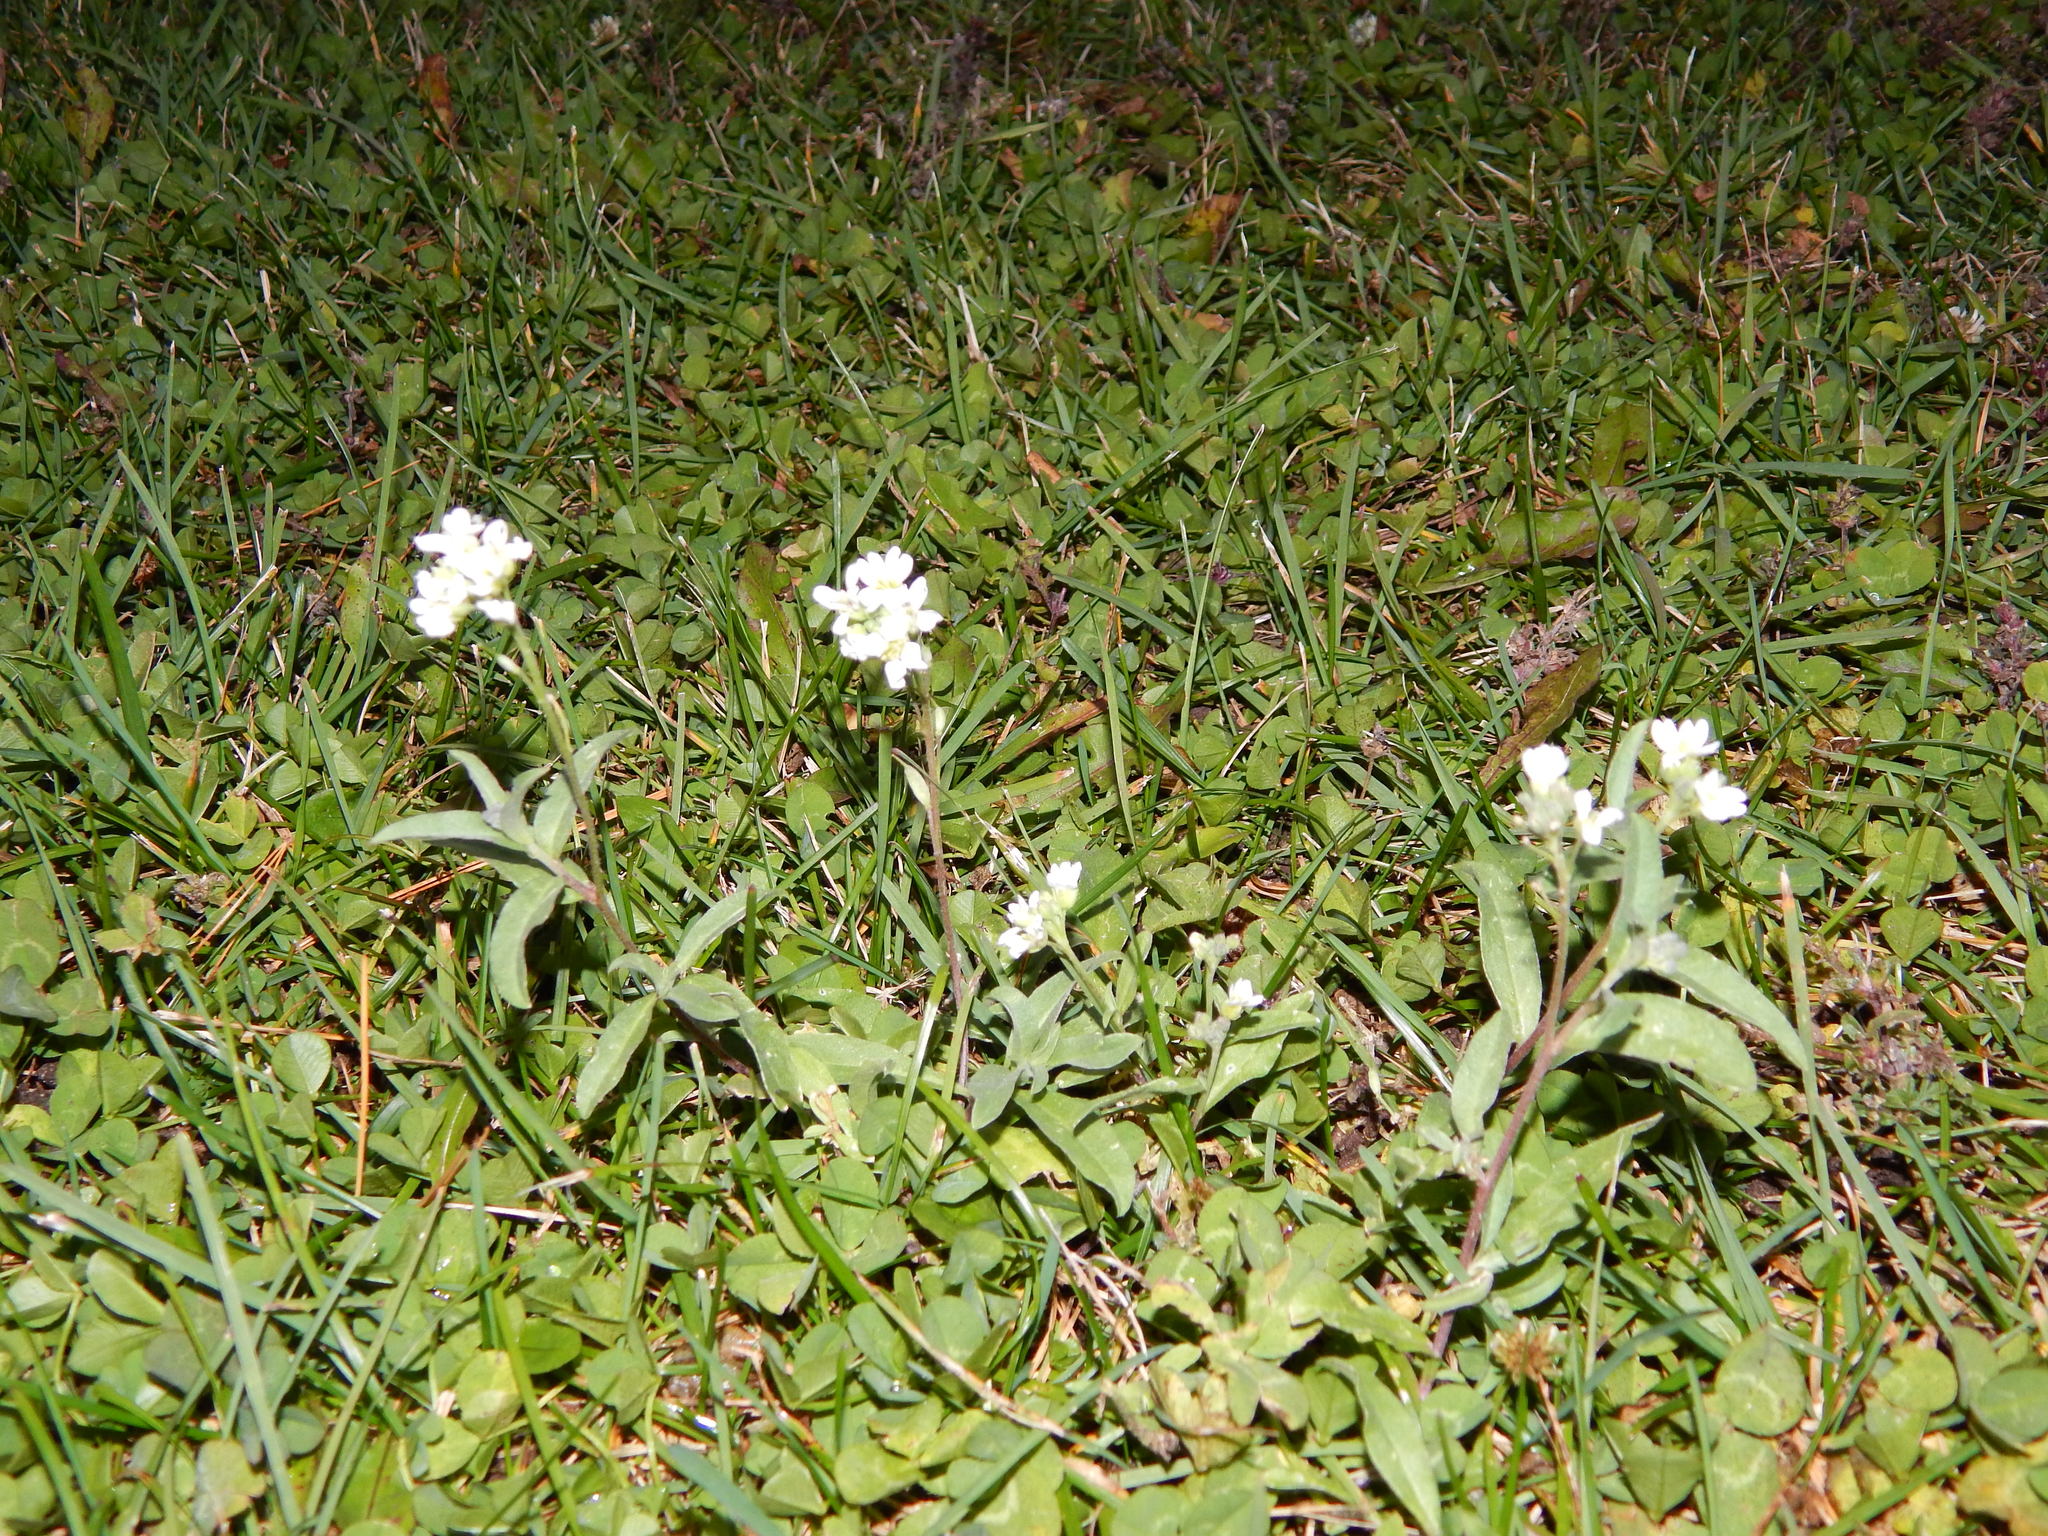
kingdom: Plantae
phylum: Tracheophyta
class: Magnoliopsida
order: Brassicales
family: Brassicaceae
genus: Berteroa
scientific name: Berteroa incana
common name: Hoary alison
